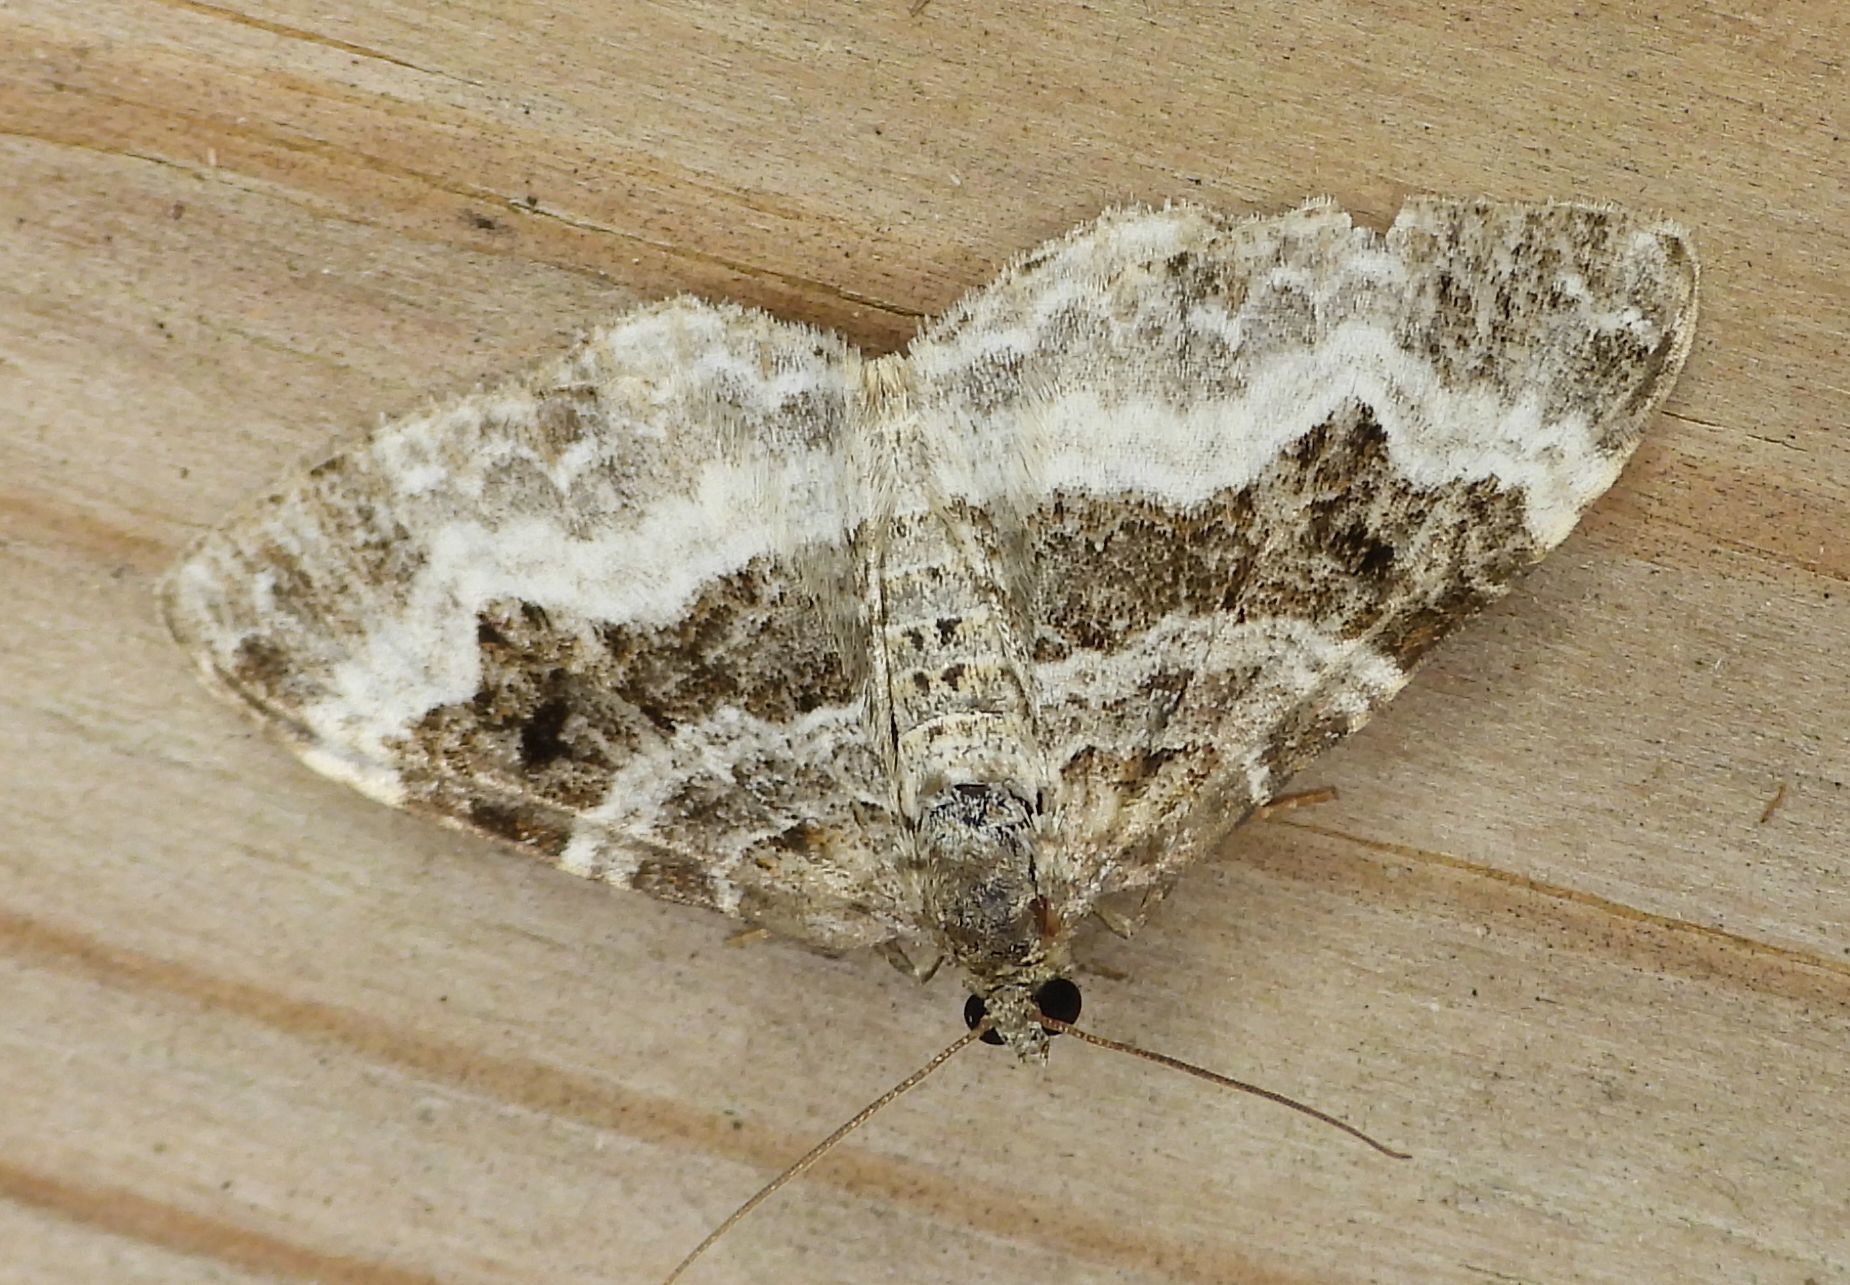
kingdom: Animalia
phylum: Arthropoda
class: Insecta
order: Lepidoptera
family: Geometridae
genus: Epirrhoe
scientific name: Epirrhoe alternata
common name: Common carpet
